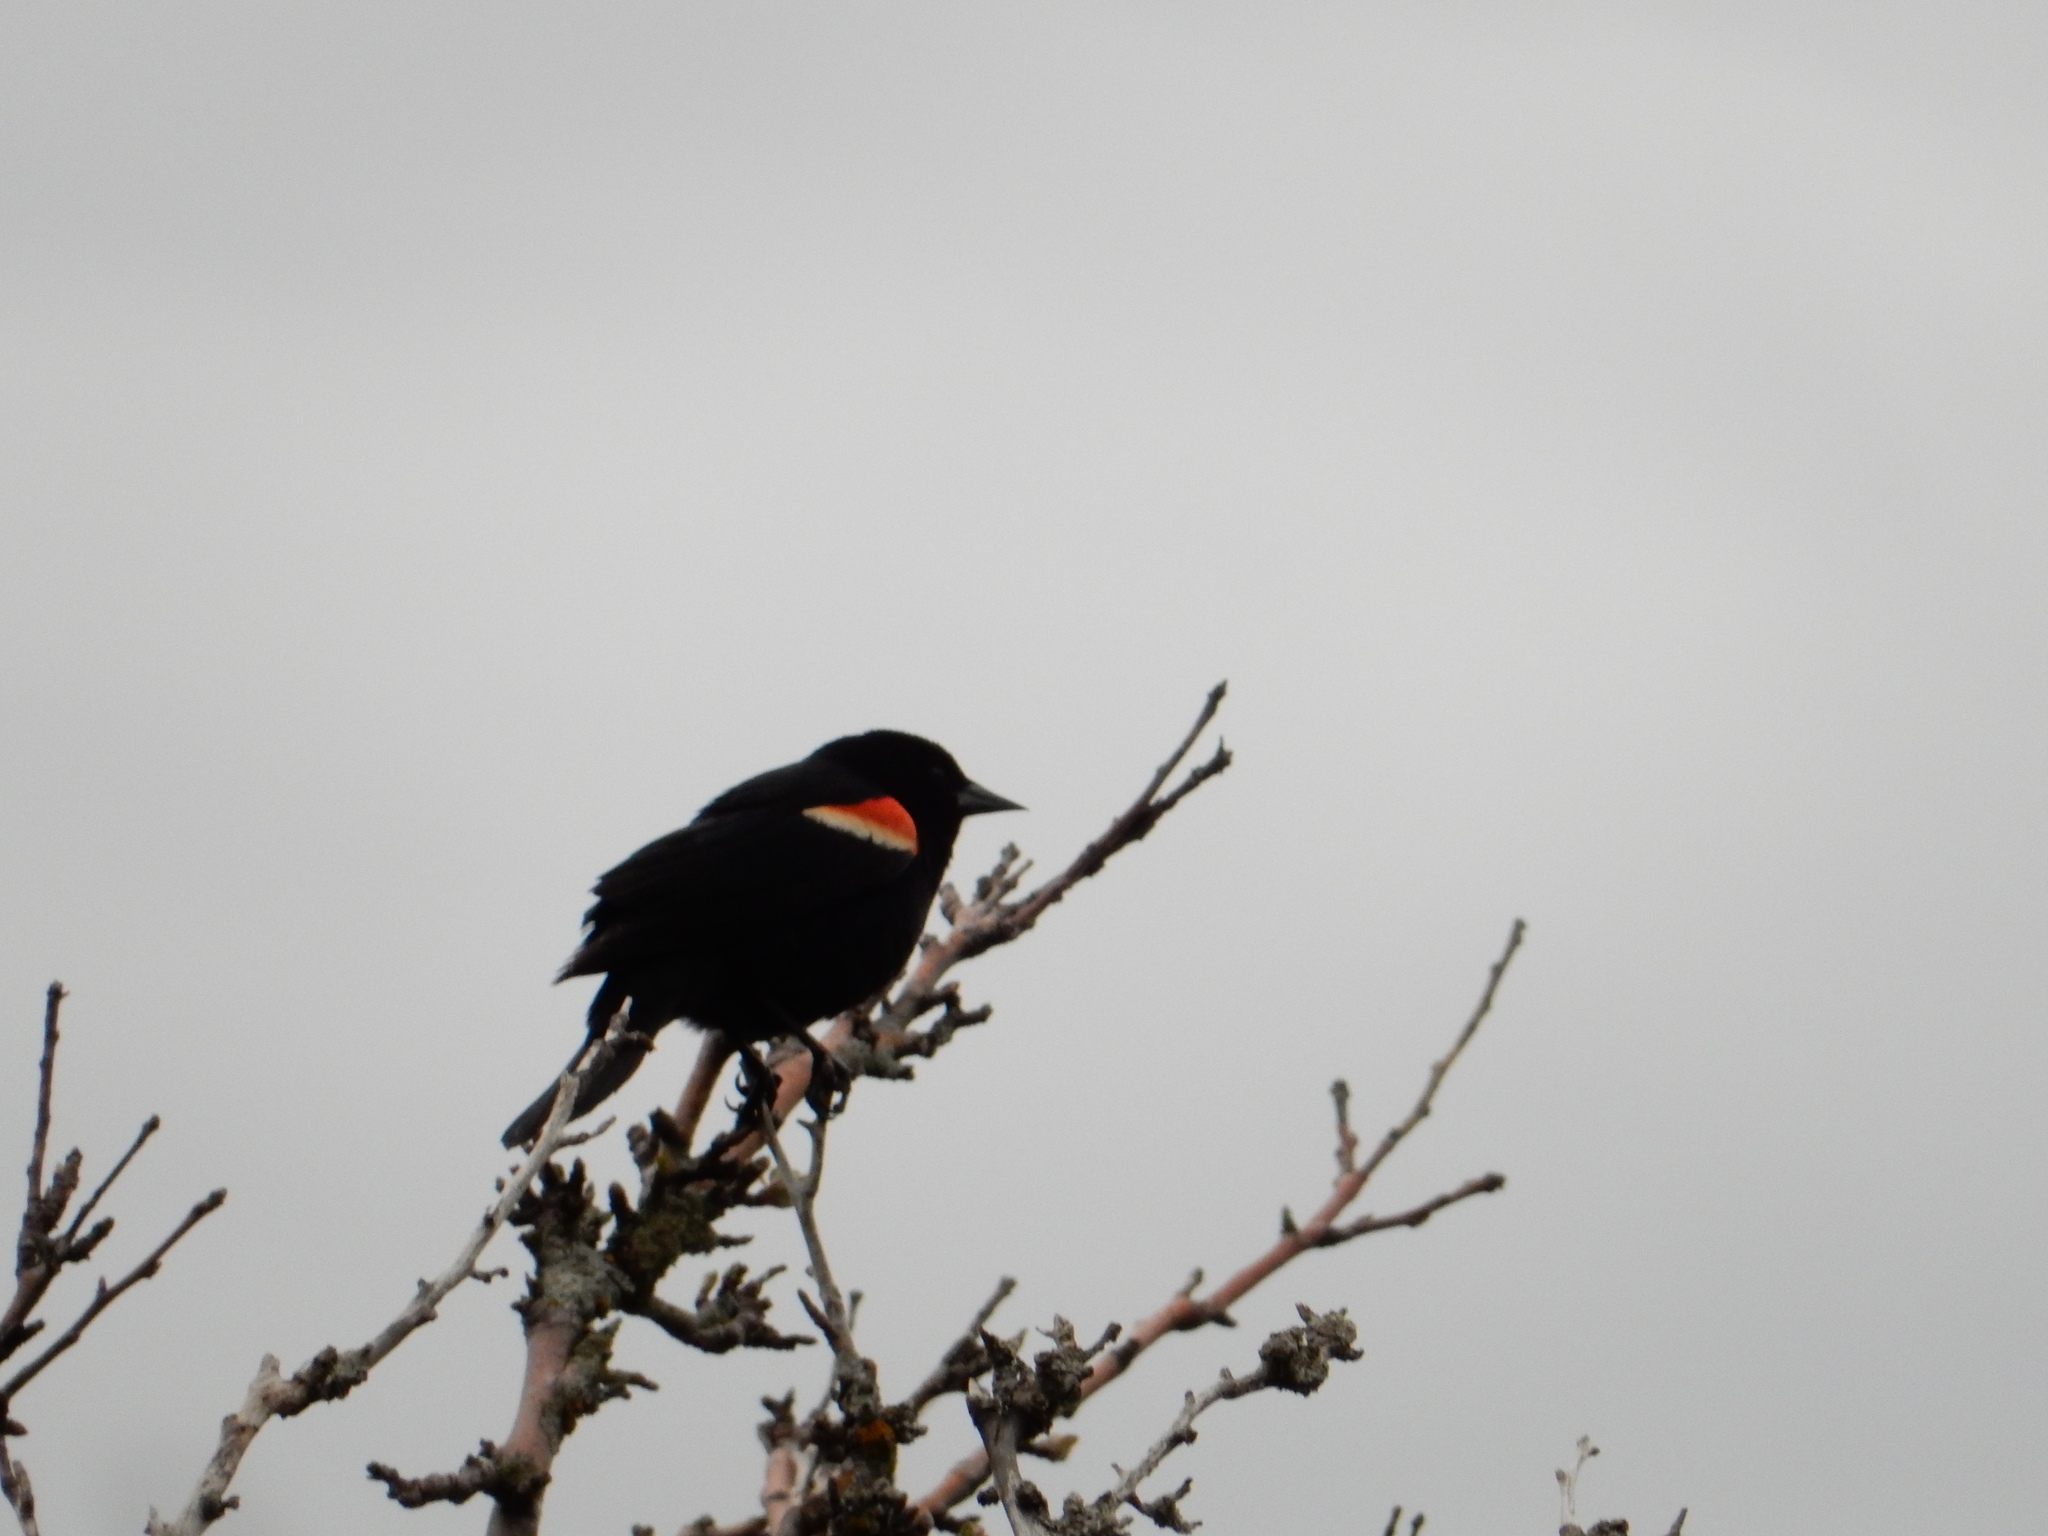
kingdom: Animalia
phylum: Chordata
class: Aves
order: Passeriformes
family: Icteridae
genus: Agelaius
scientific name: Agelaius phoeniceus
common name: Red-winged blackbird
